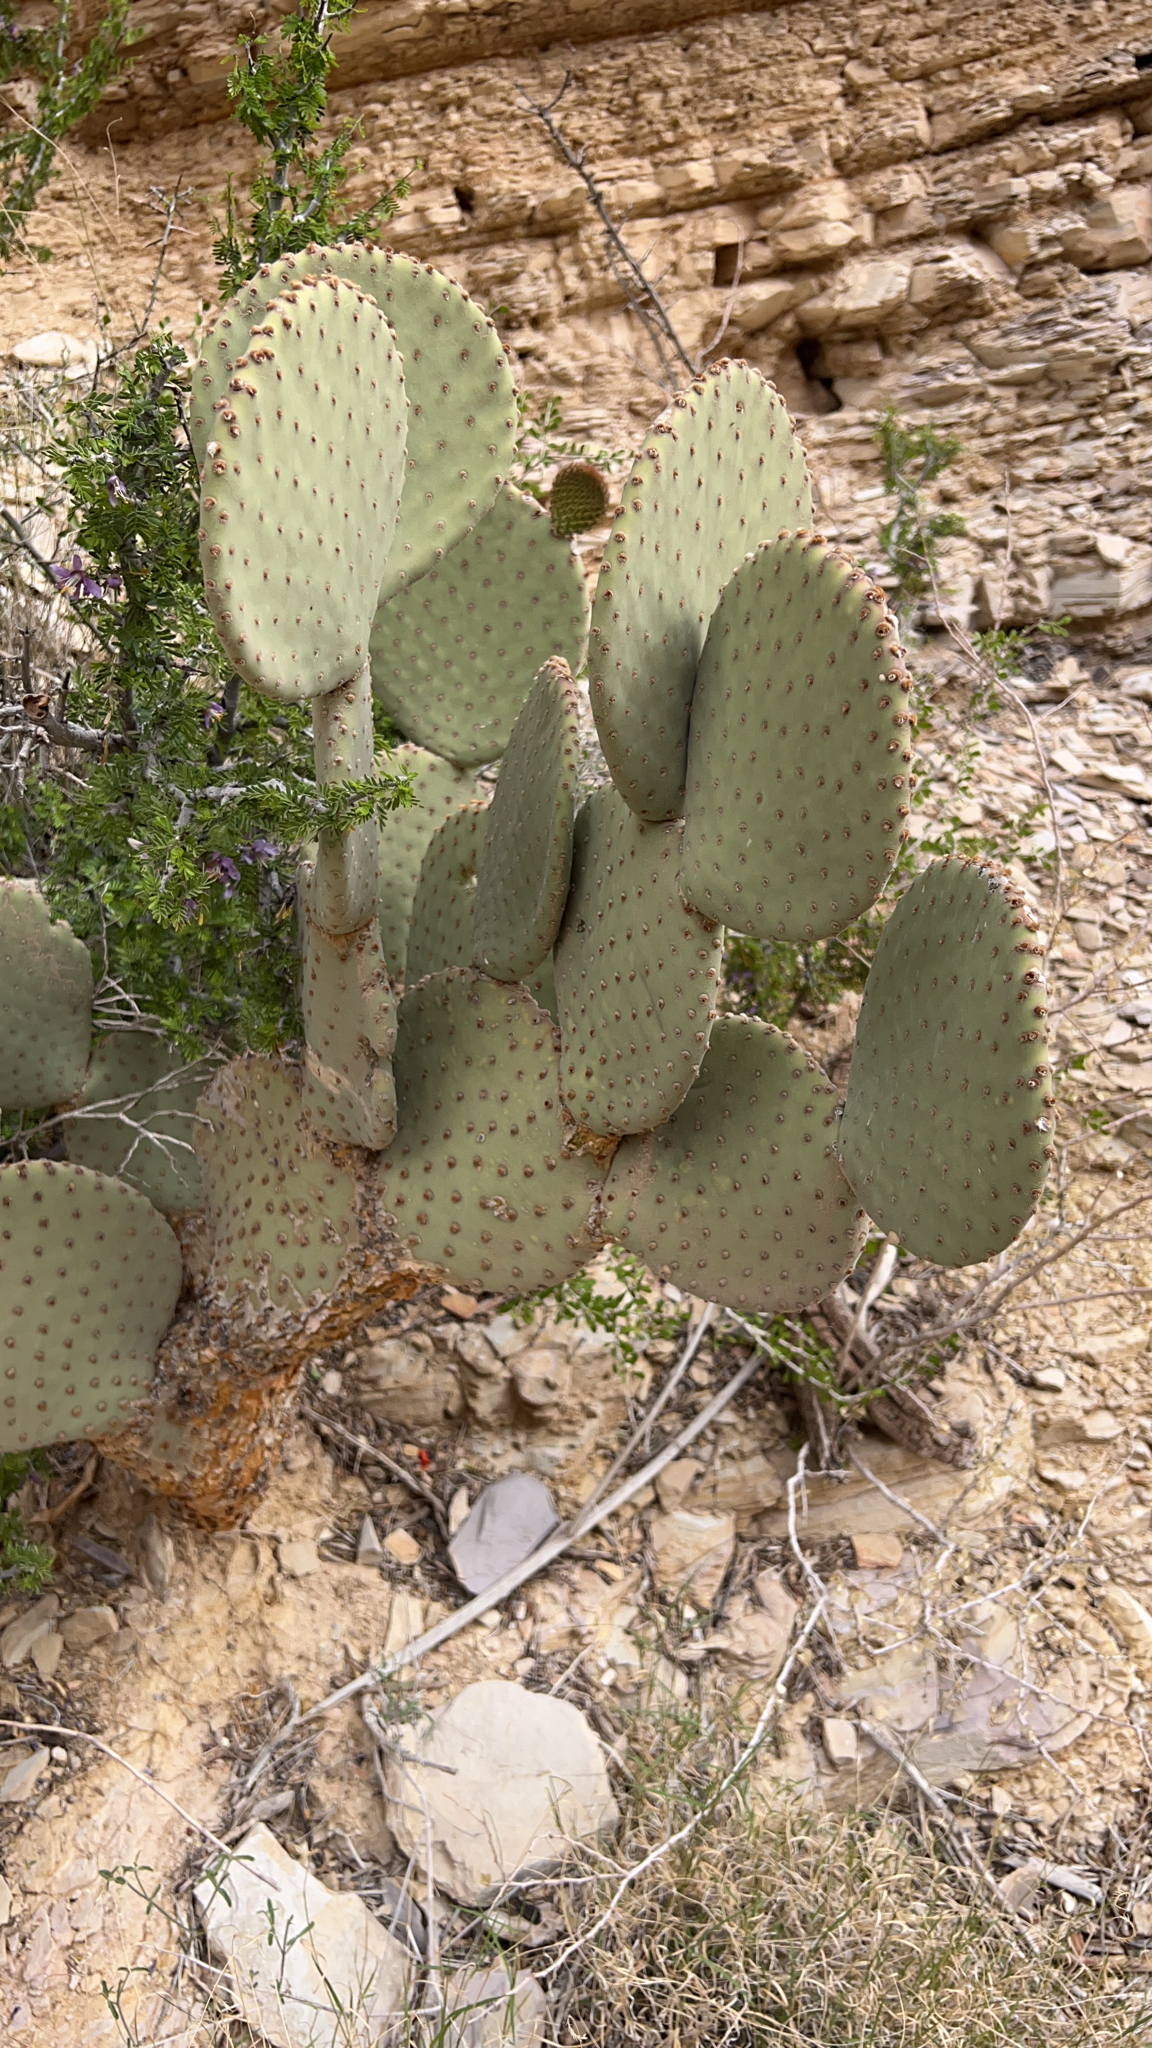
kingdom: Plantae
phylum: Tracheophyta
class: Magnoliopsida
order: Caryophyllales
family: Cactaceae
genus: Opuntia
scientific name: Opuntia rufida
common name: Blind pricklypear
